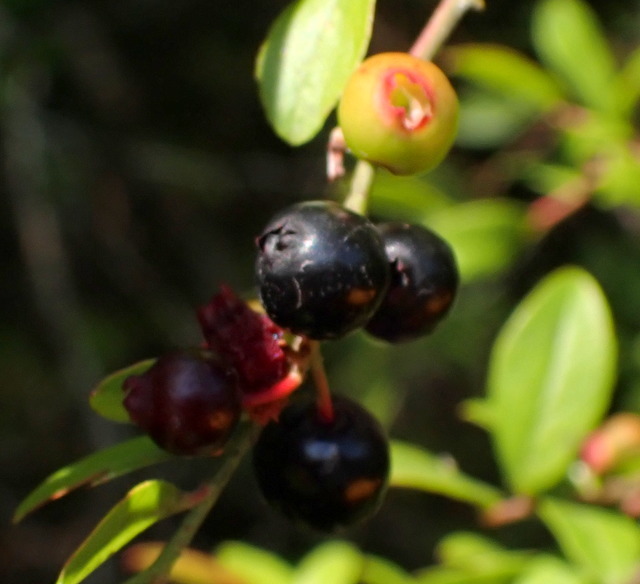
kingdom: Plantae
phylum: Tracheophyta
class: Magnoliopsida
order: Ericales
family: Ericaceae
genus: Vaccinium
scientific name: Vaccinium corymbosum
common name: Blueberry
